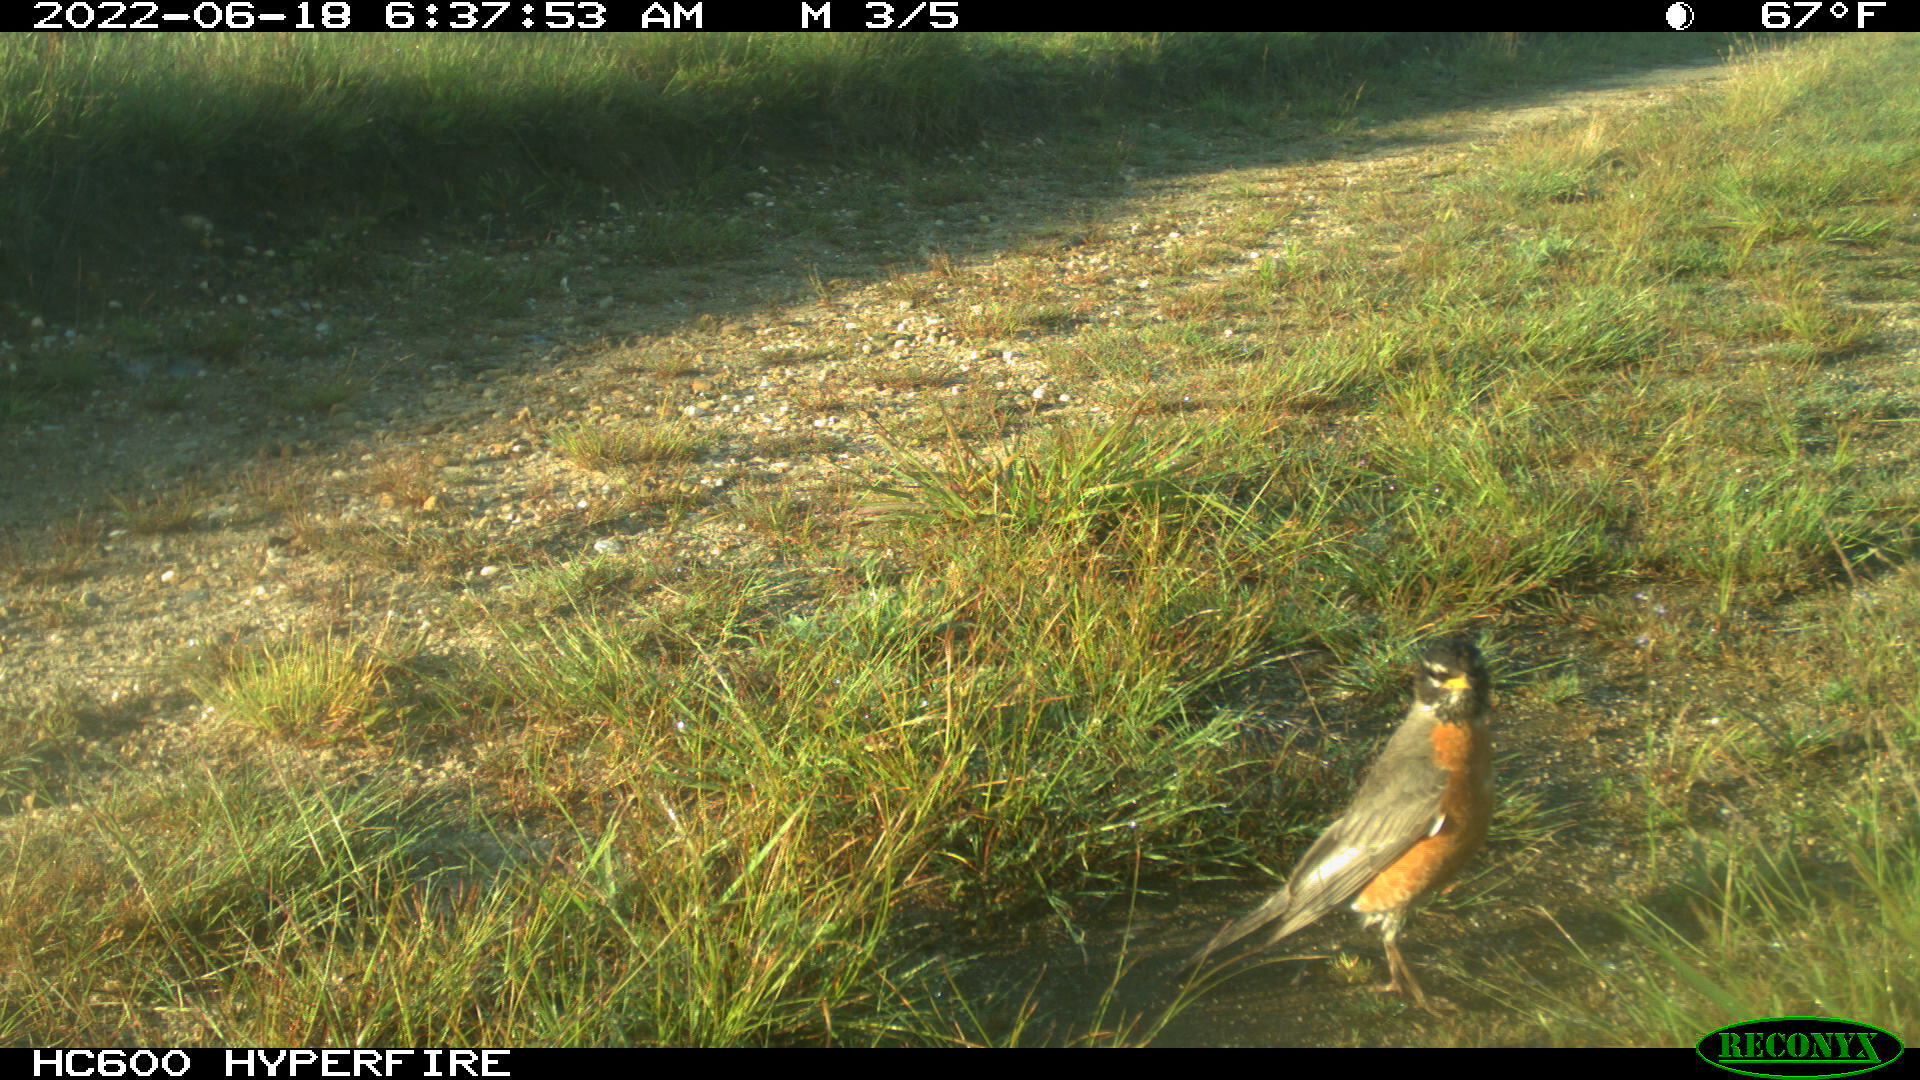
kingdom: Animalia
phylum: Chordata
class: Aves
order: Passeriformes
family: Turdidae
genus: Turdus
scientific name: Turdus migratorius
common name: American robin
